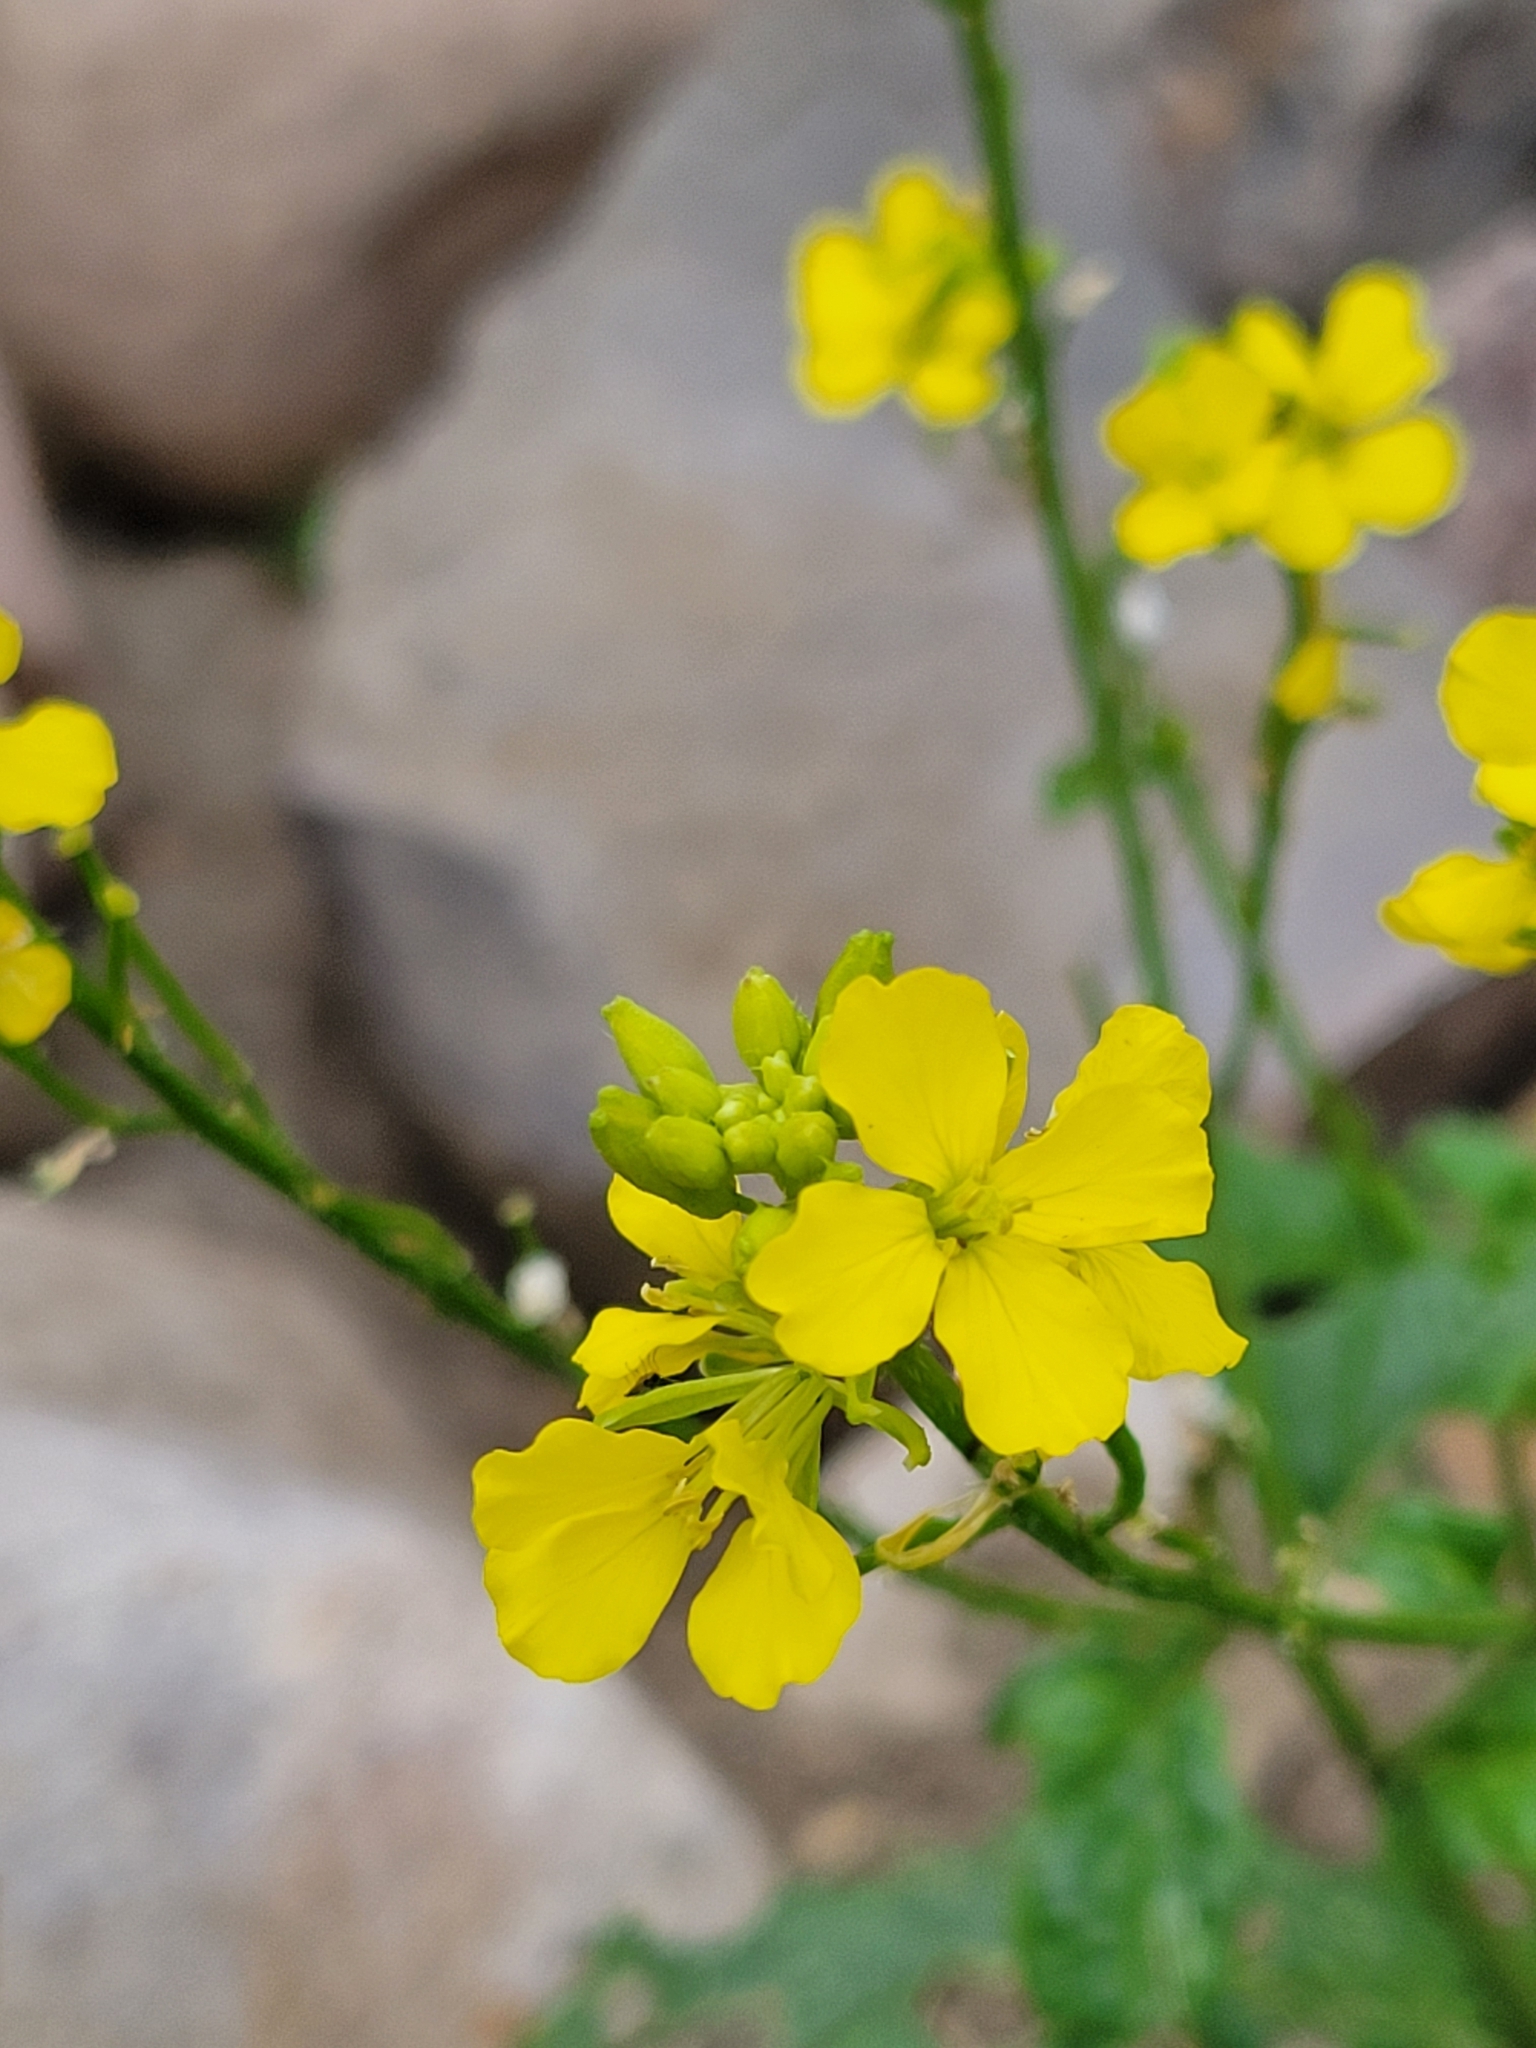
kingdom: Plantae
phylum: Tracheophyta
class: Magnoliopsida
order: Brassicales
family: Brassicaceae
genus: Sinapis
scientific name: Sinapis arvensis
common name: Charlock
